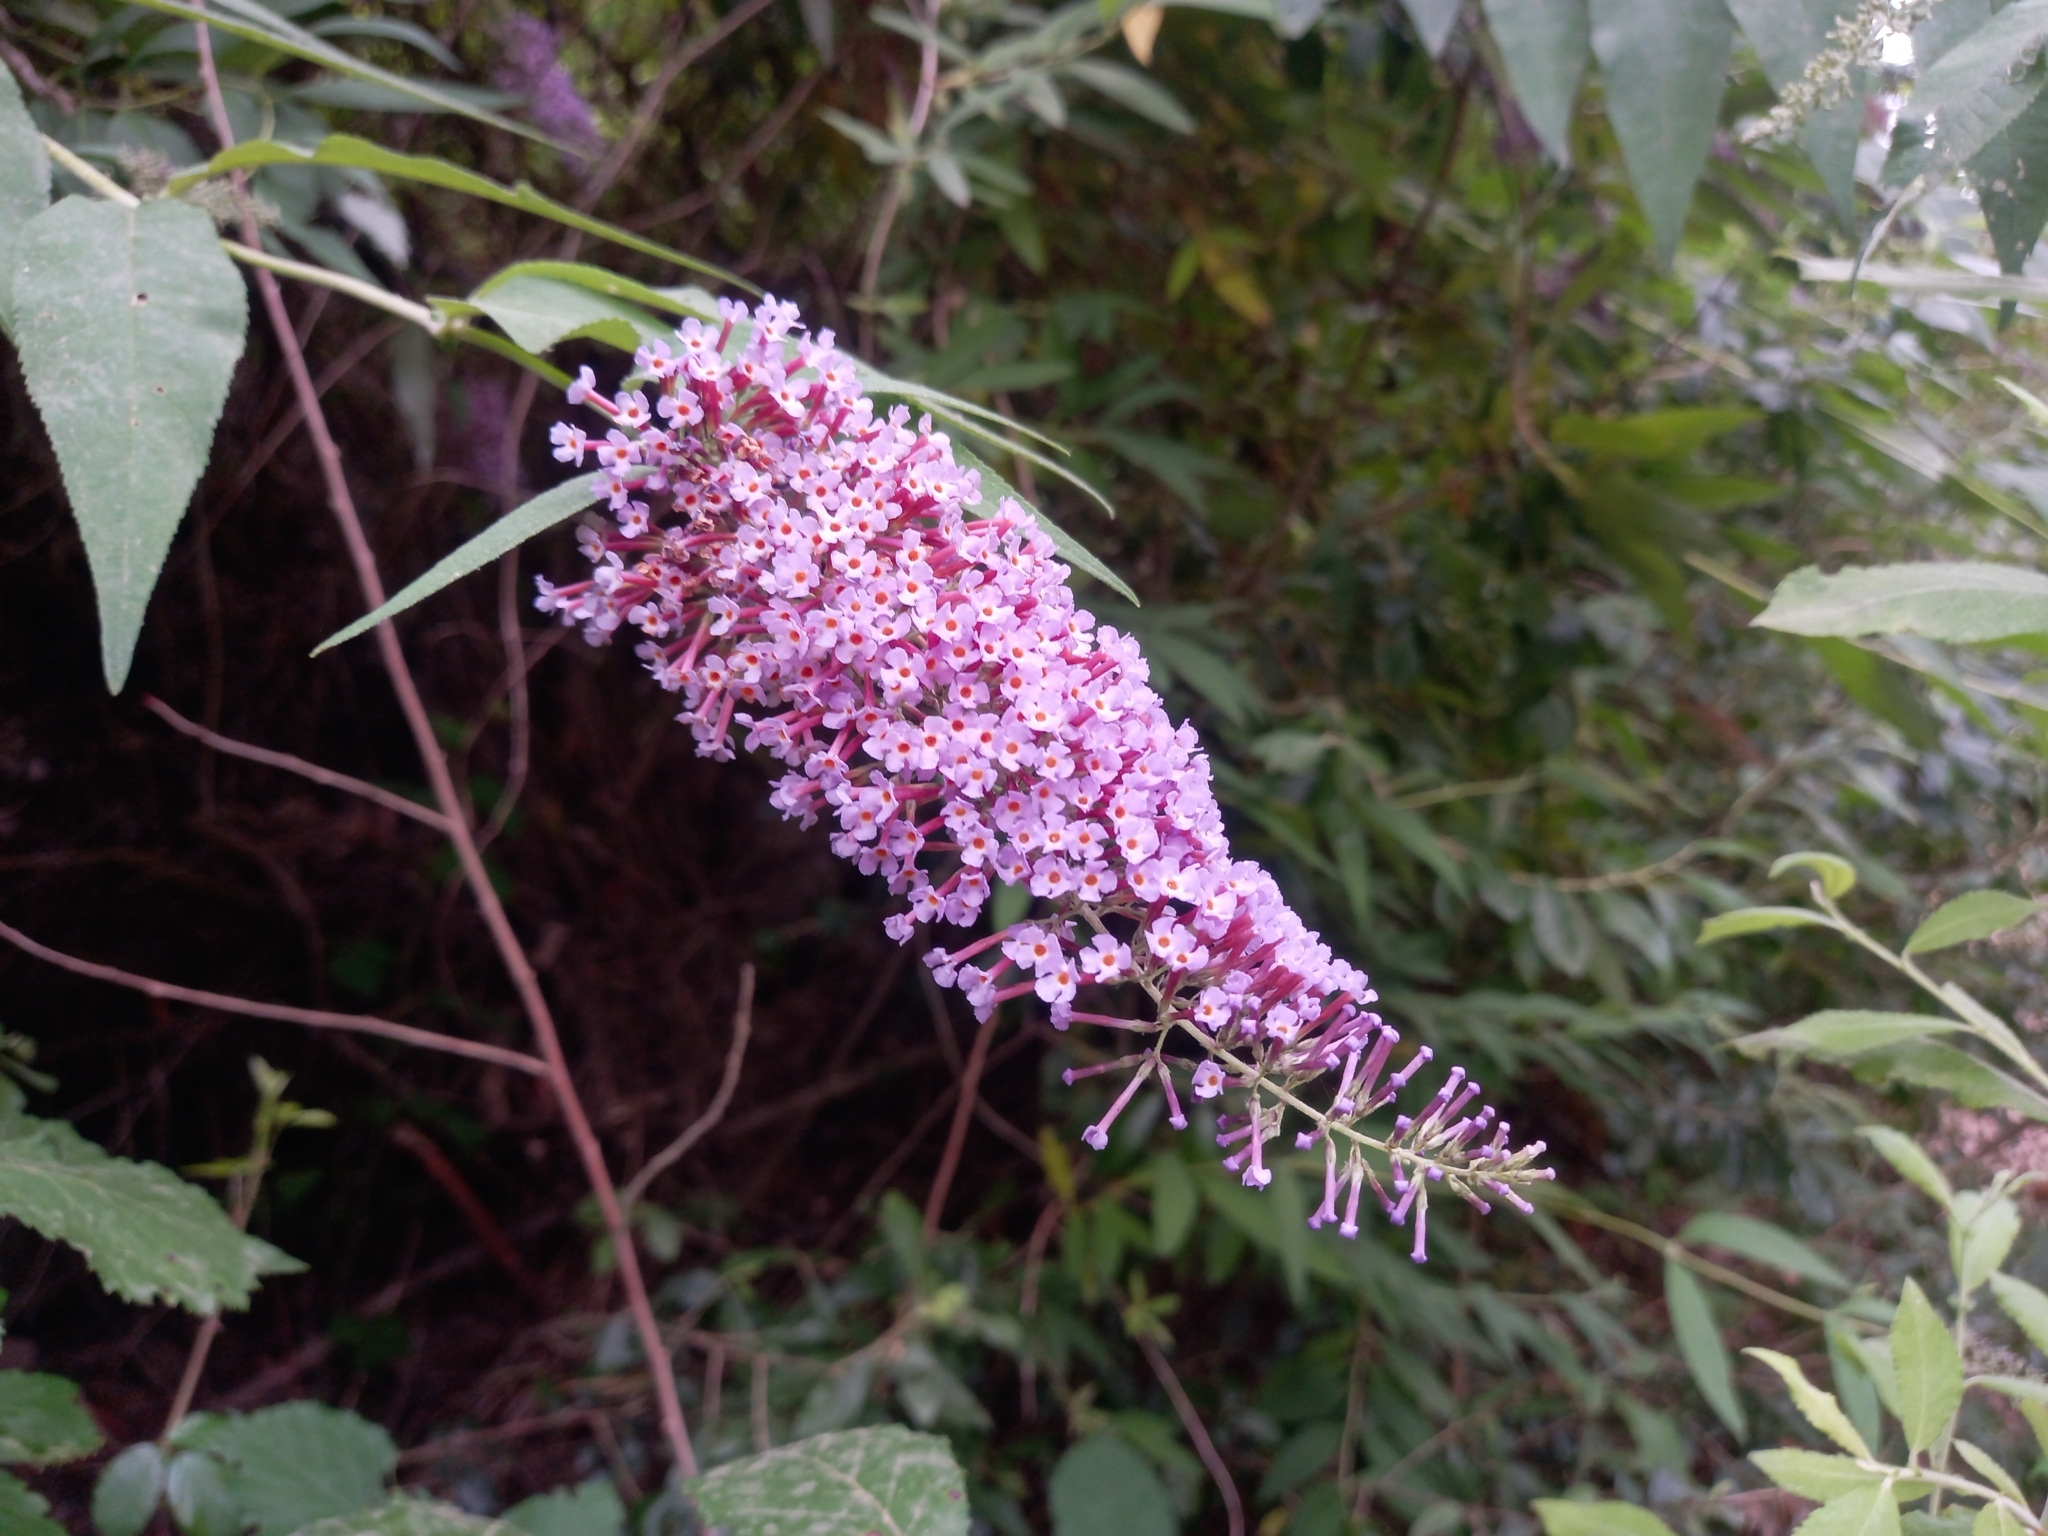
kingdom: Plantae
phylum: Tracheophyta
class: Magnoliopsida
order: Lamiales
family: Scrophulariaceae
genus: Buddleja
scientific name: Buddleja davidii
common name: Butterfly-bush
